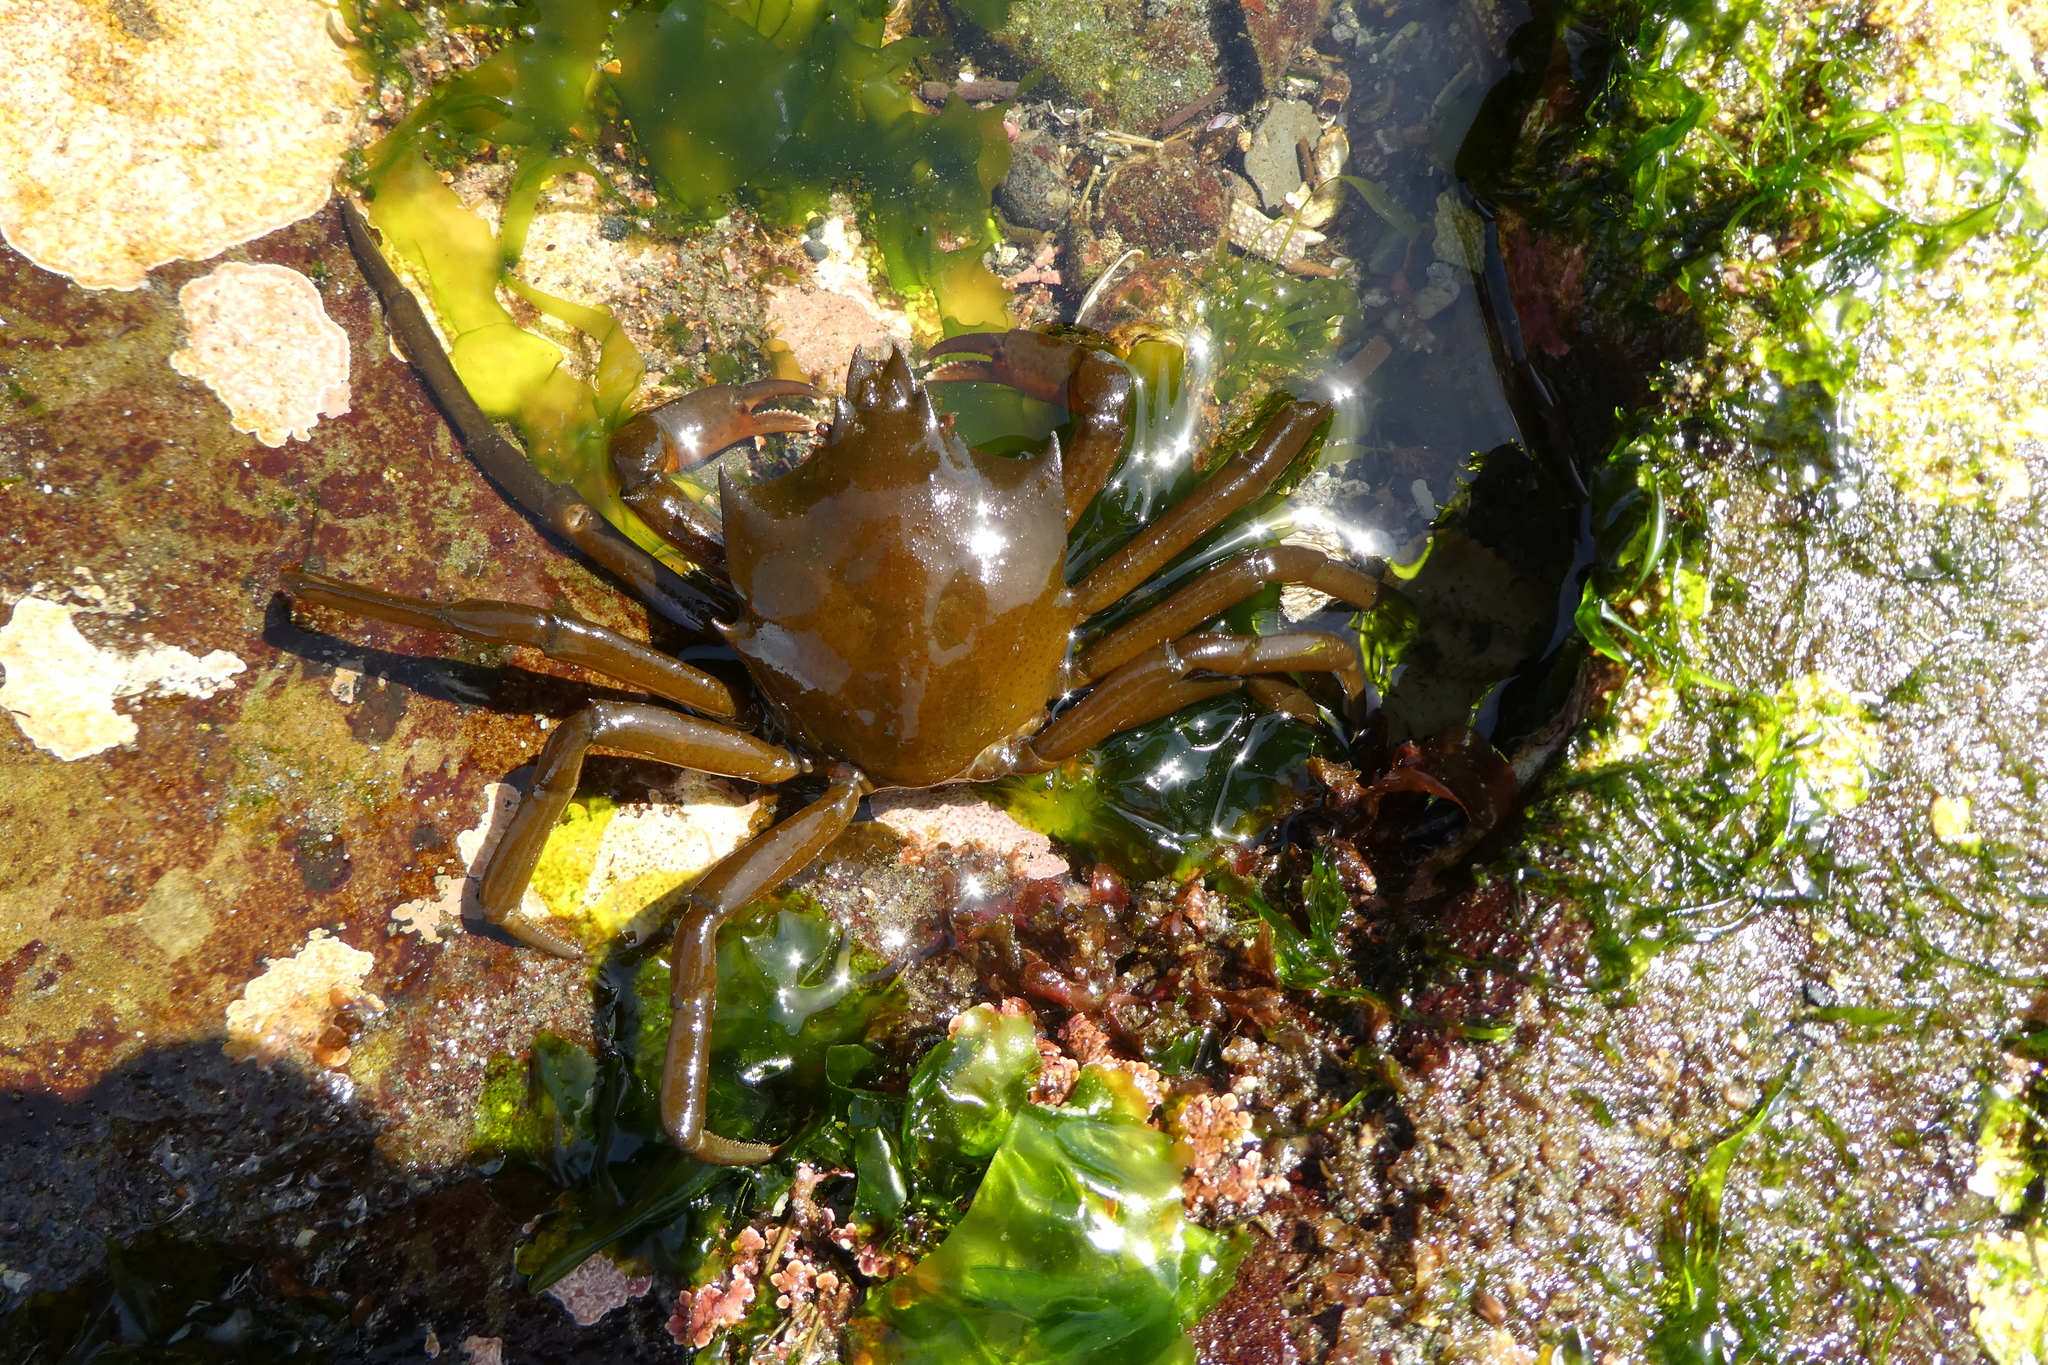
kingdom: Animalia
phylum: Arthropoda
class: Malacostraca
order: Decapoda
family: Epialtidae
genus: Pugettia
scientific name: Pugettia producta
